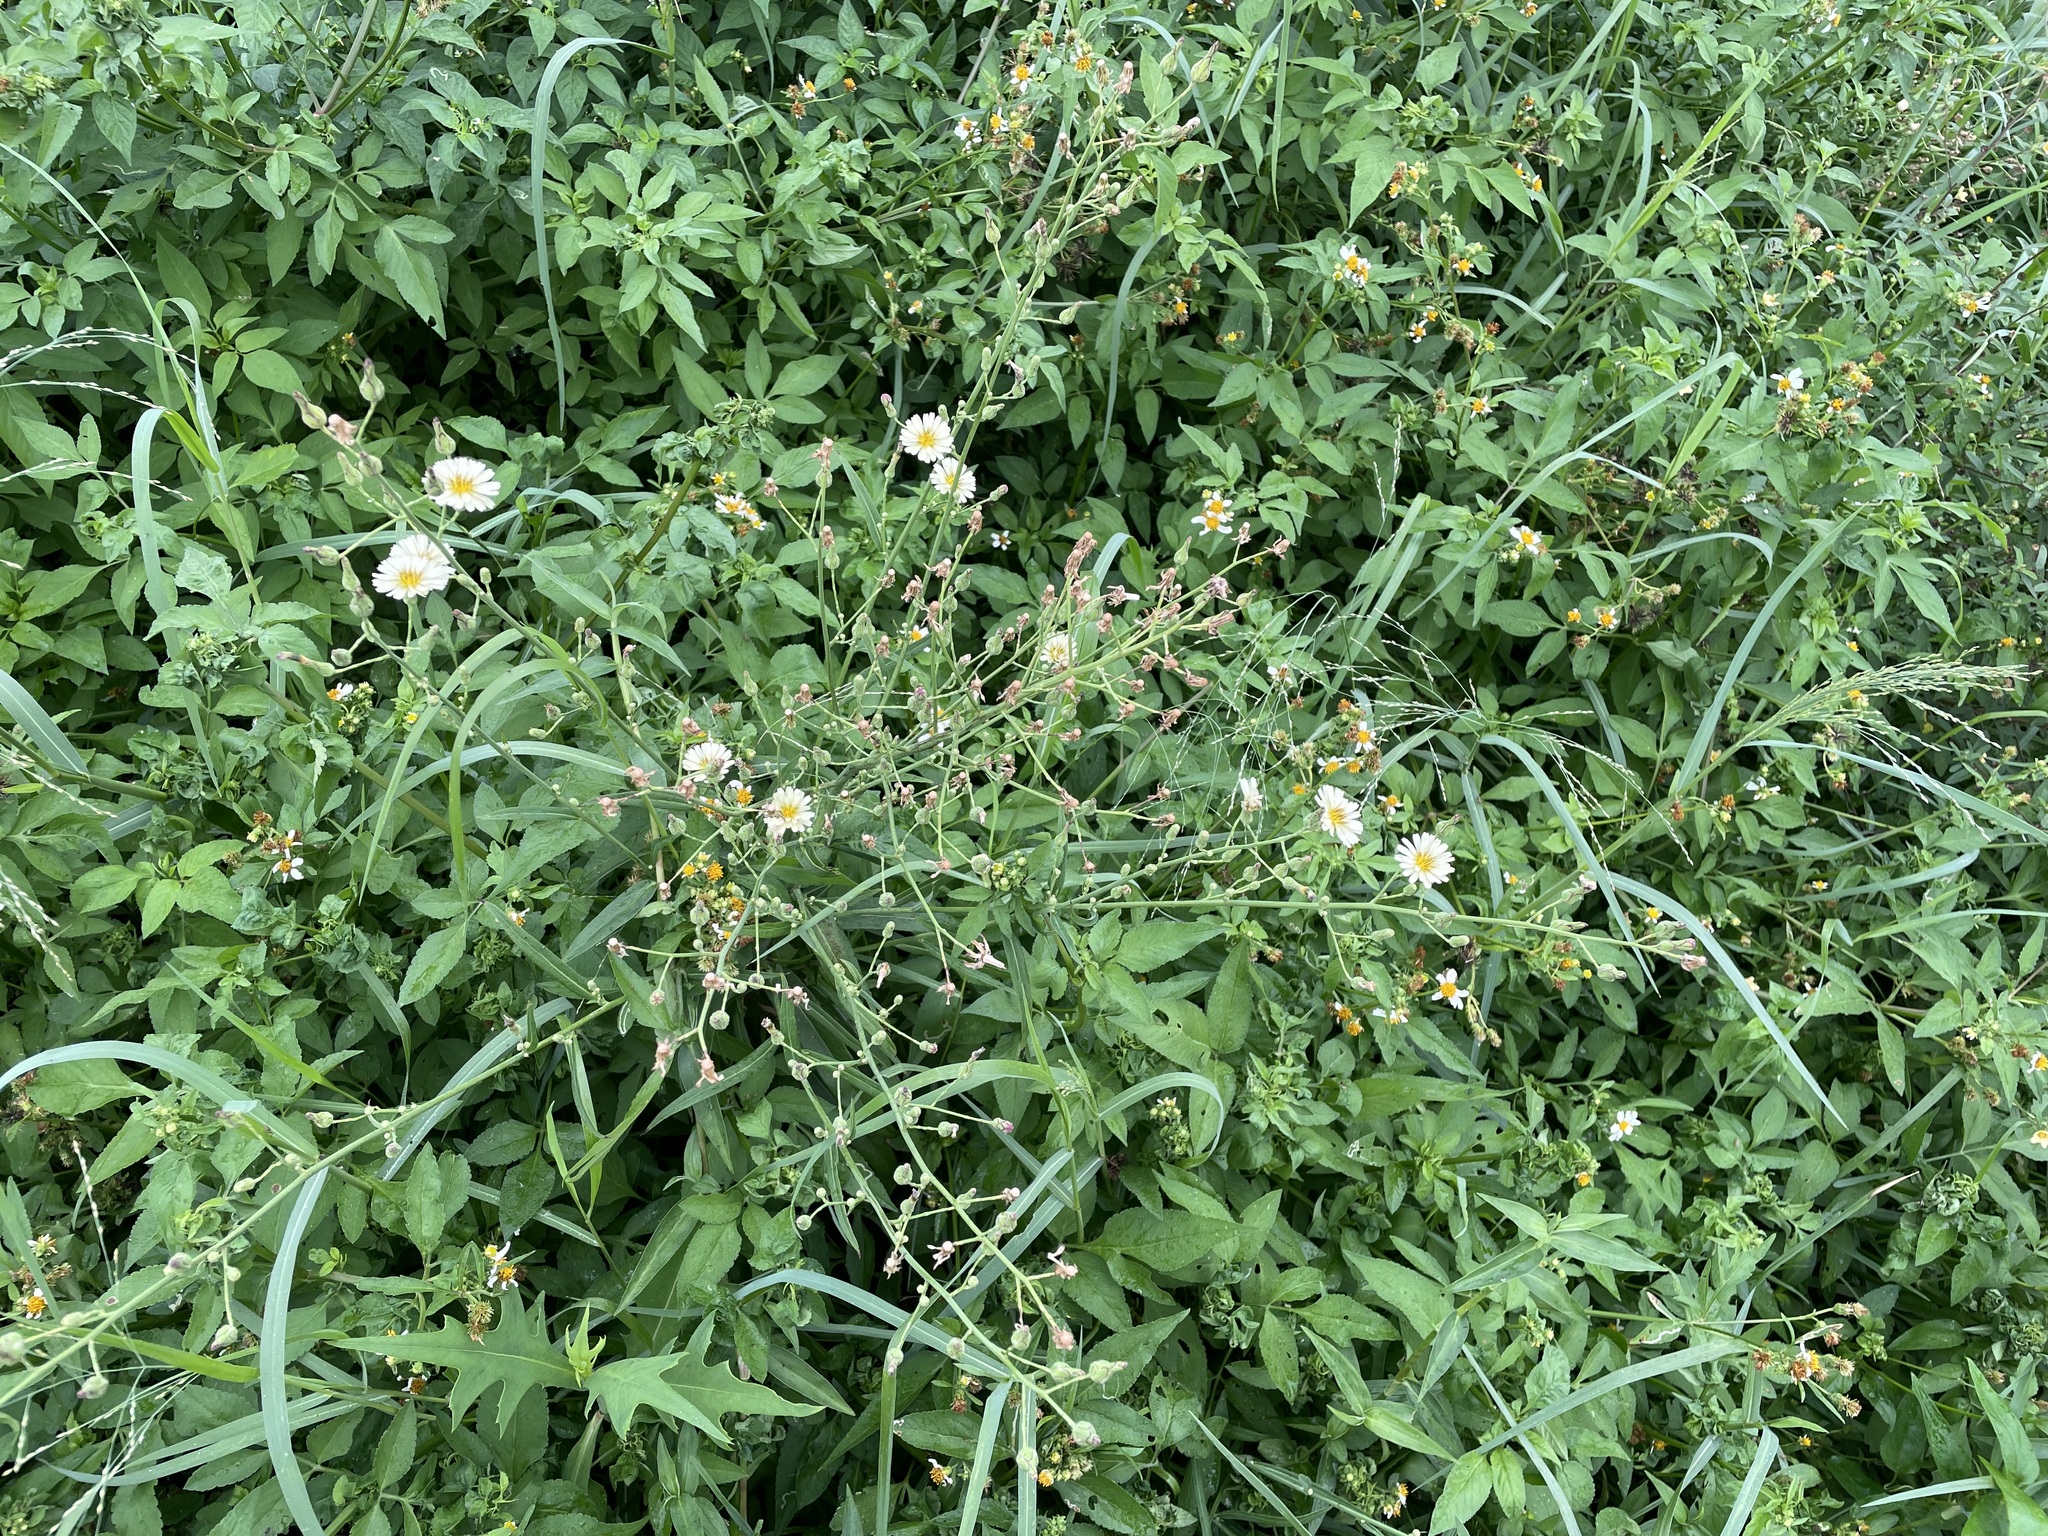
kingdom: Plantae
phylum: Tracheophyta
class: Magnoliopsida
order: Asterales
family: Asteraceae
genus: Lactuca
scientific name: Lactuca indica
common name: Wild lettuce
